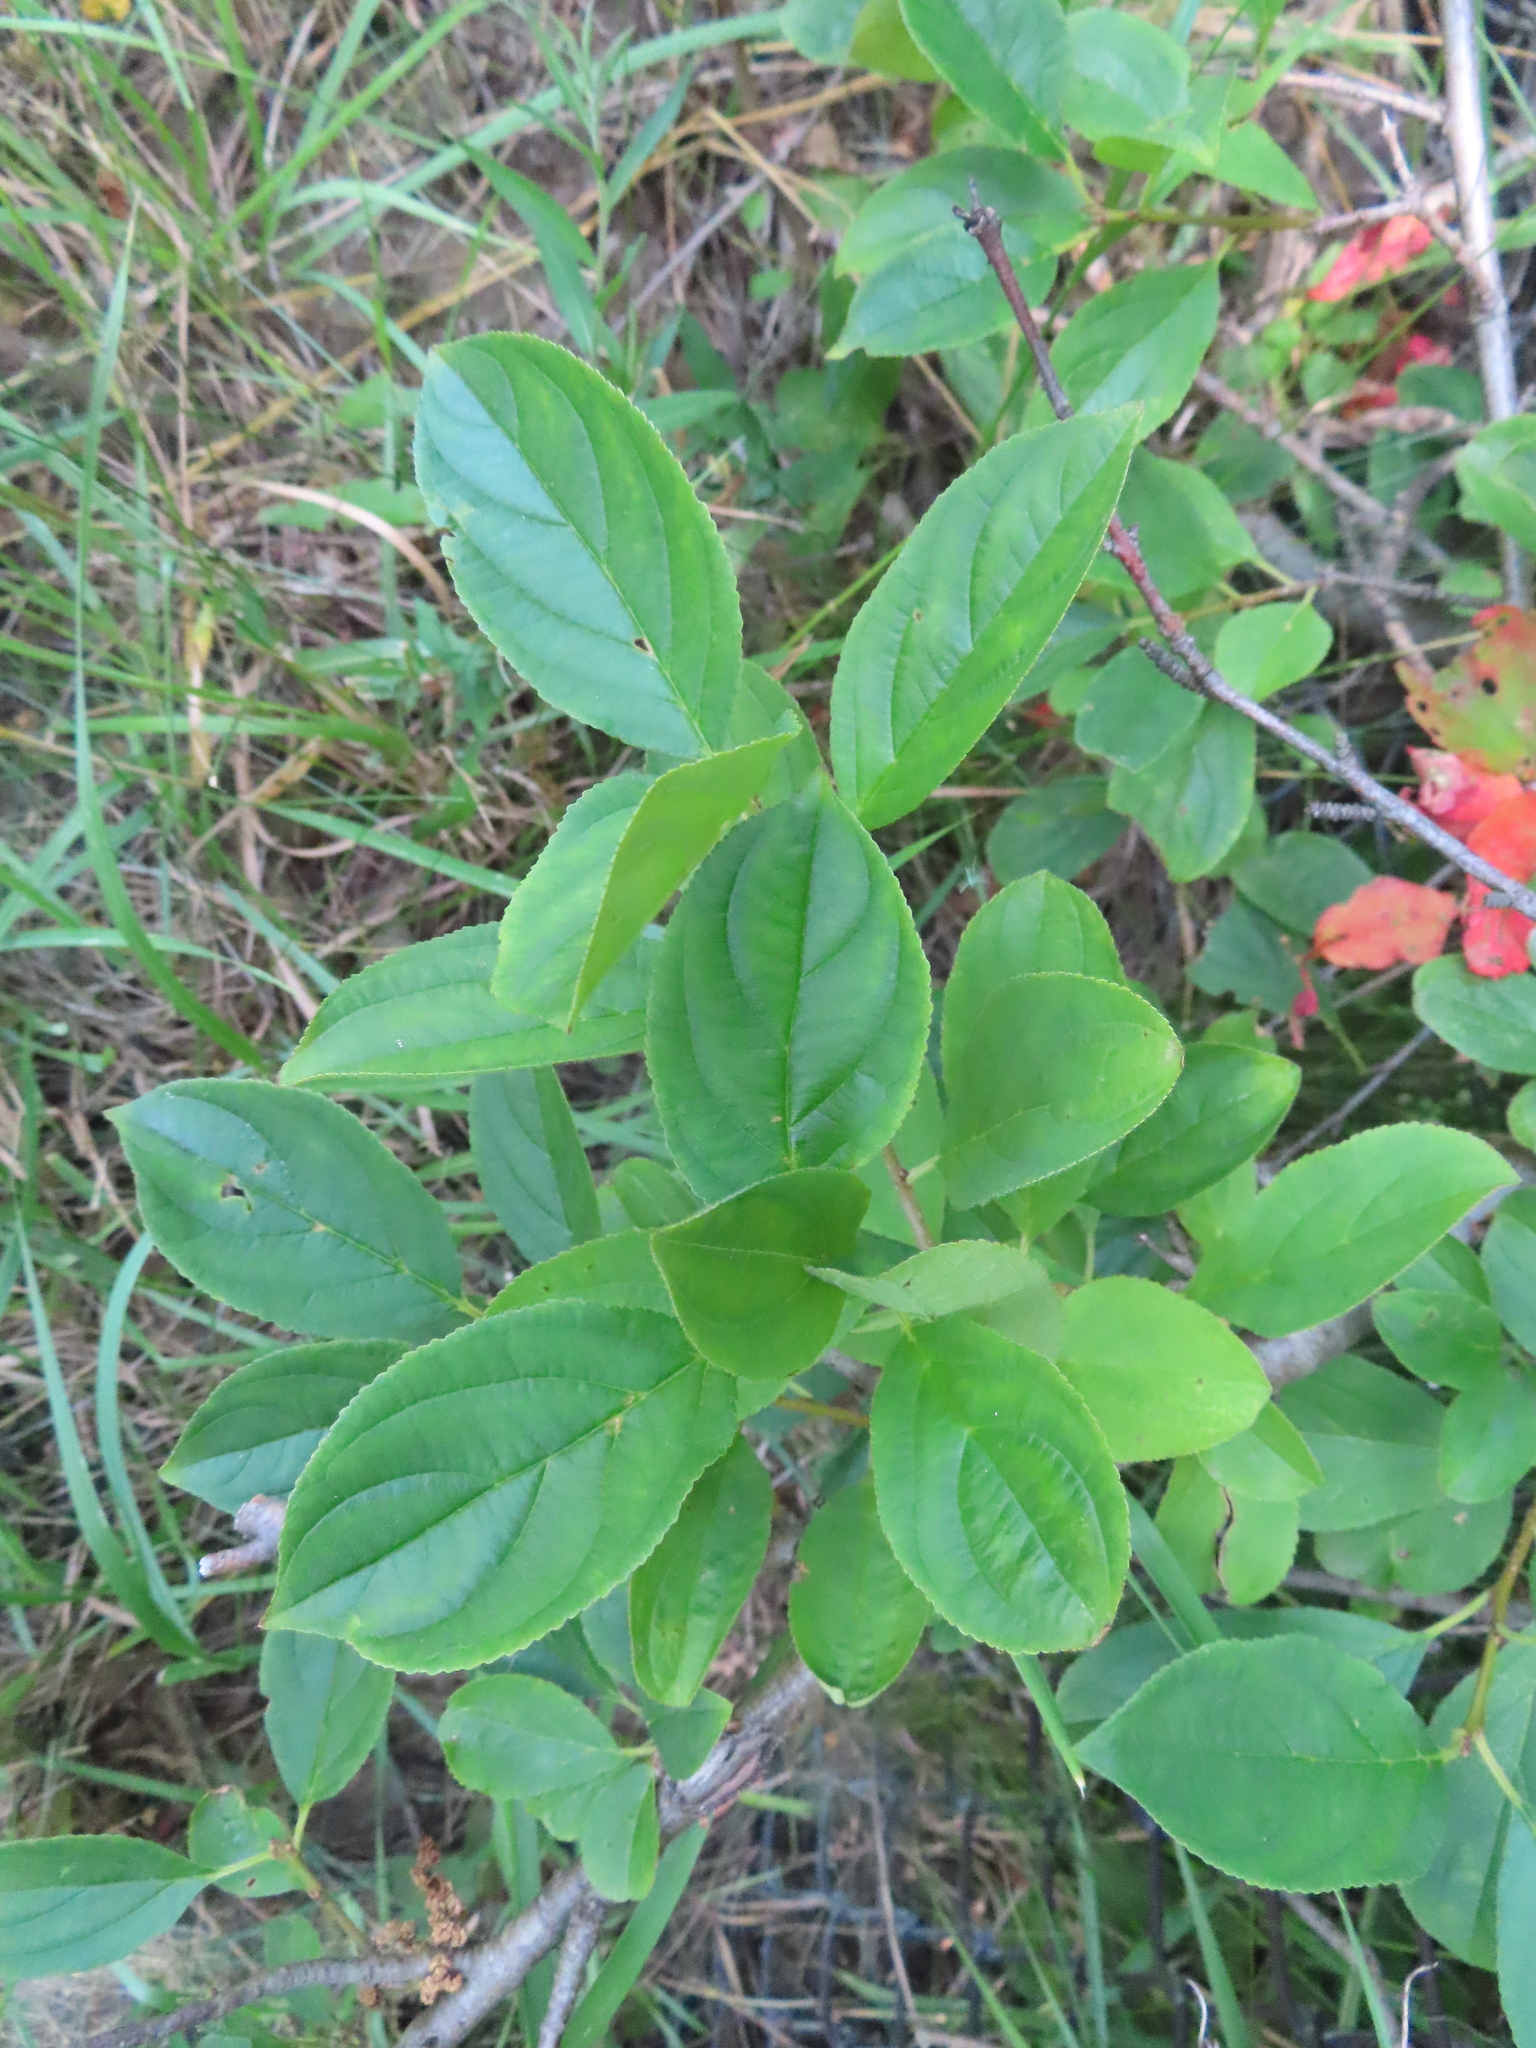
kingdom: Plantae
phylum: Tracheophyta
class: Magnoliopsida
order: Rosales
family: Rhamnaceae
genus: Rhamnus
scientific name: Rhamnus cathartica
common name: Common buckthorn
